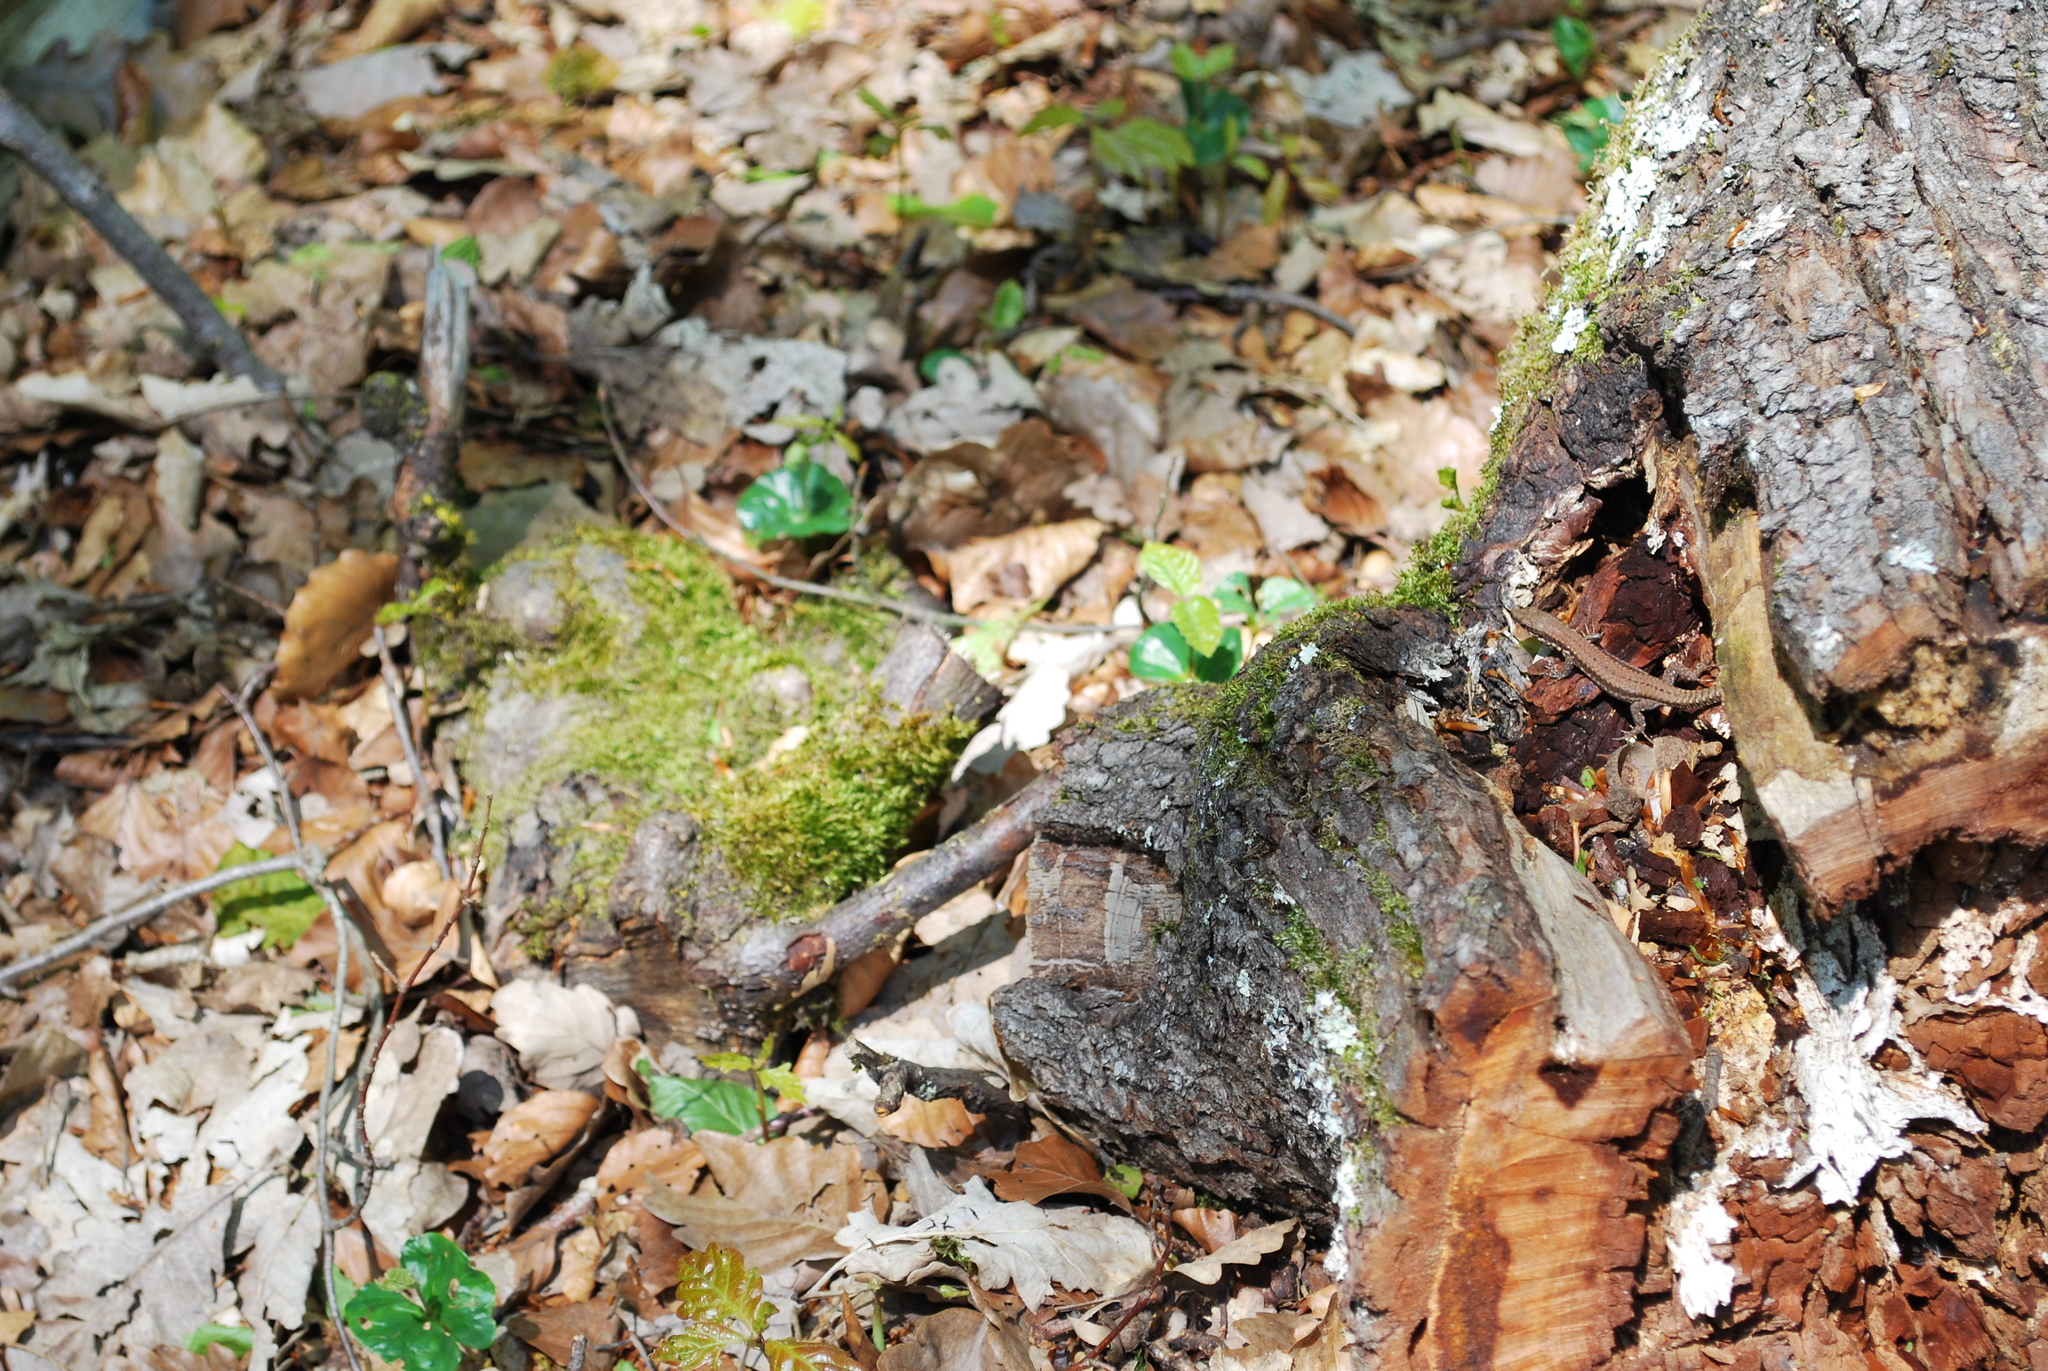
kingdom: Animalia
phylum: Chordata
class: Squamata
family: Lacertidae
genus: Podarcis
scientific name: Podarcis muralis
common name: Common wall lizard
